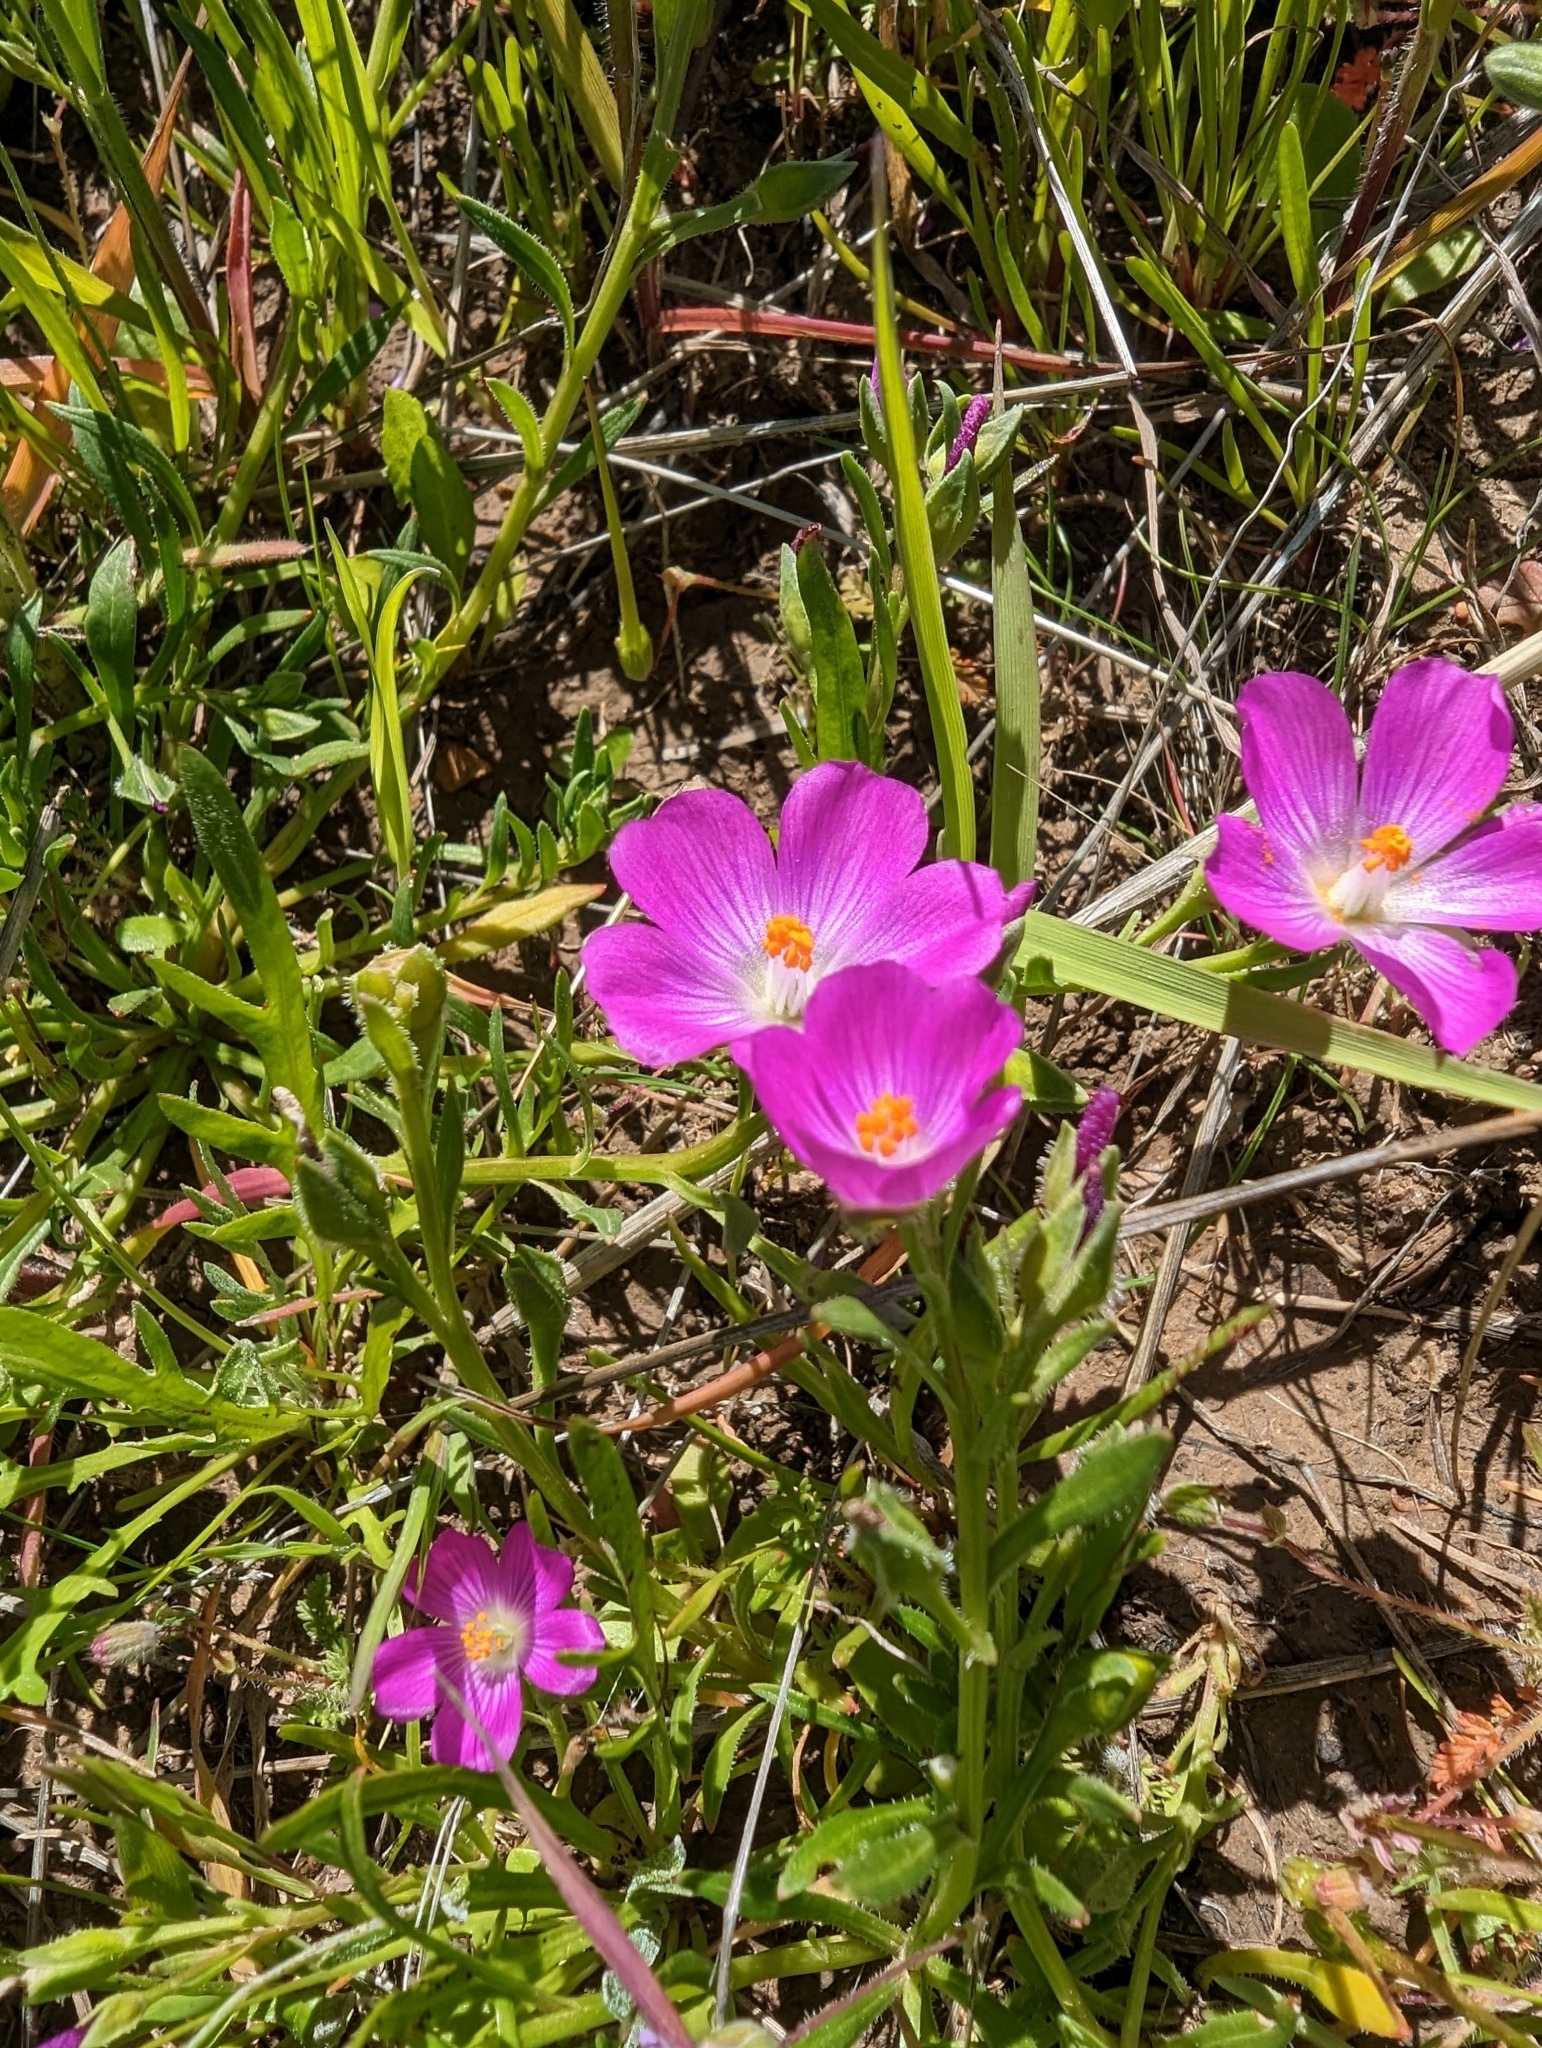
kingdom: Plantae
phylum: Tracheophyta
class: Magnoliopsida
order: Caryophyllales
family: Montiaceae
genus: Calandrinia
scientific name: Calandrinia menziesii
